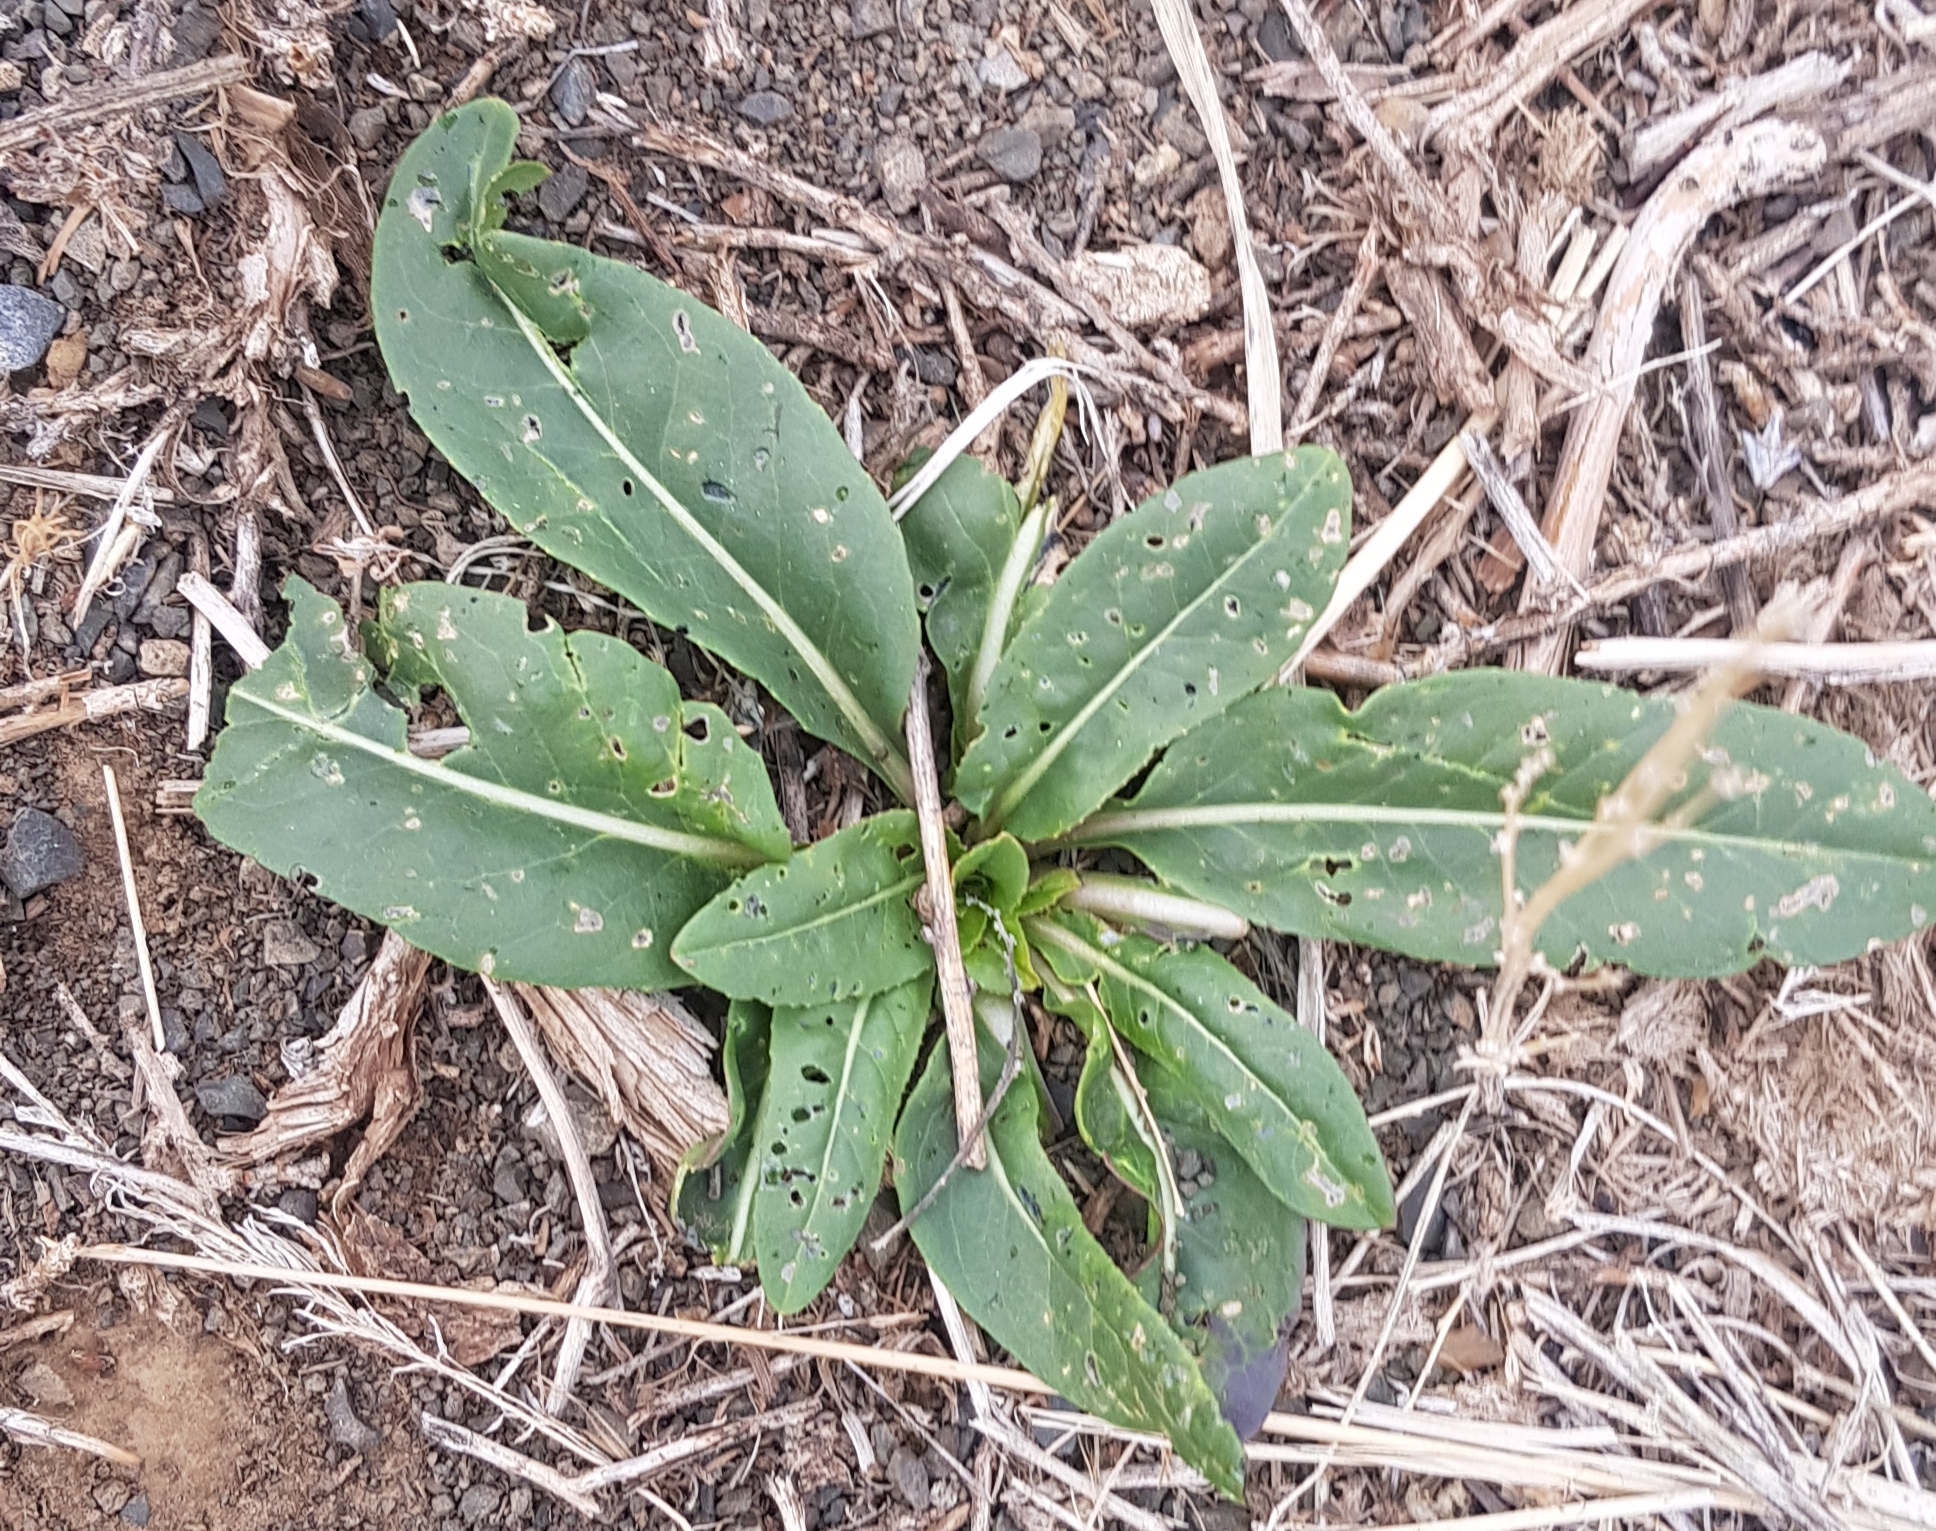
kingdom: Plantae
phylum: Tracheophyta
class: Magnoliopsida
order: Brassicales
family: Brassicaceae
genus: Isatis
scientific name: Isatis tinctoria
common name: Woad
